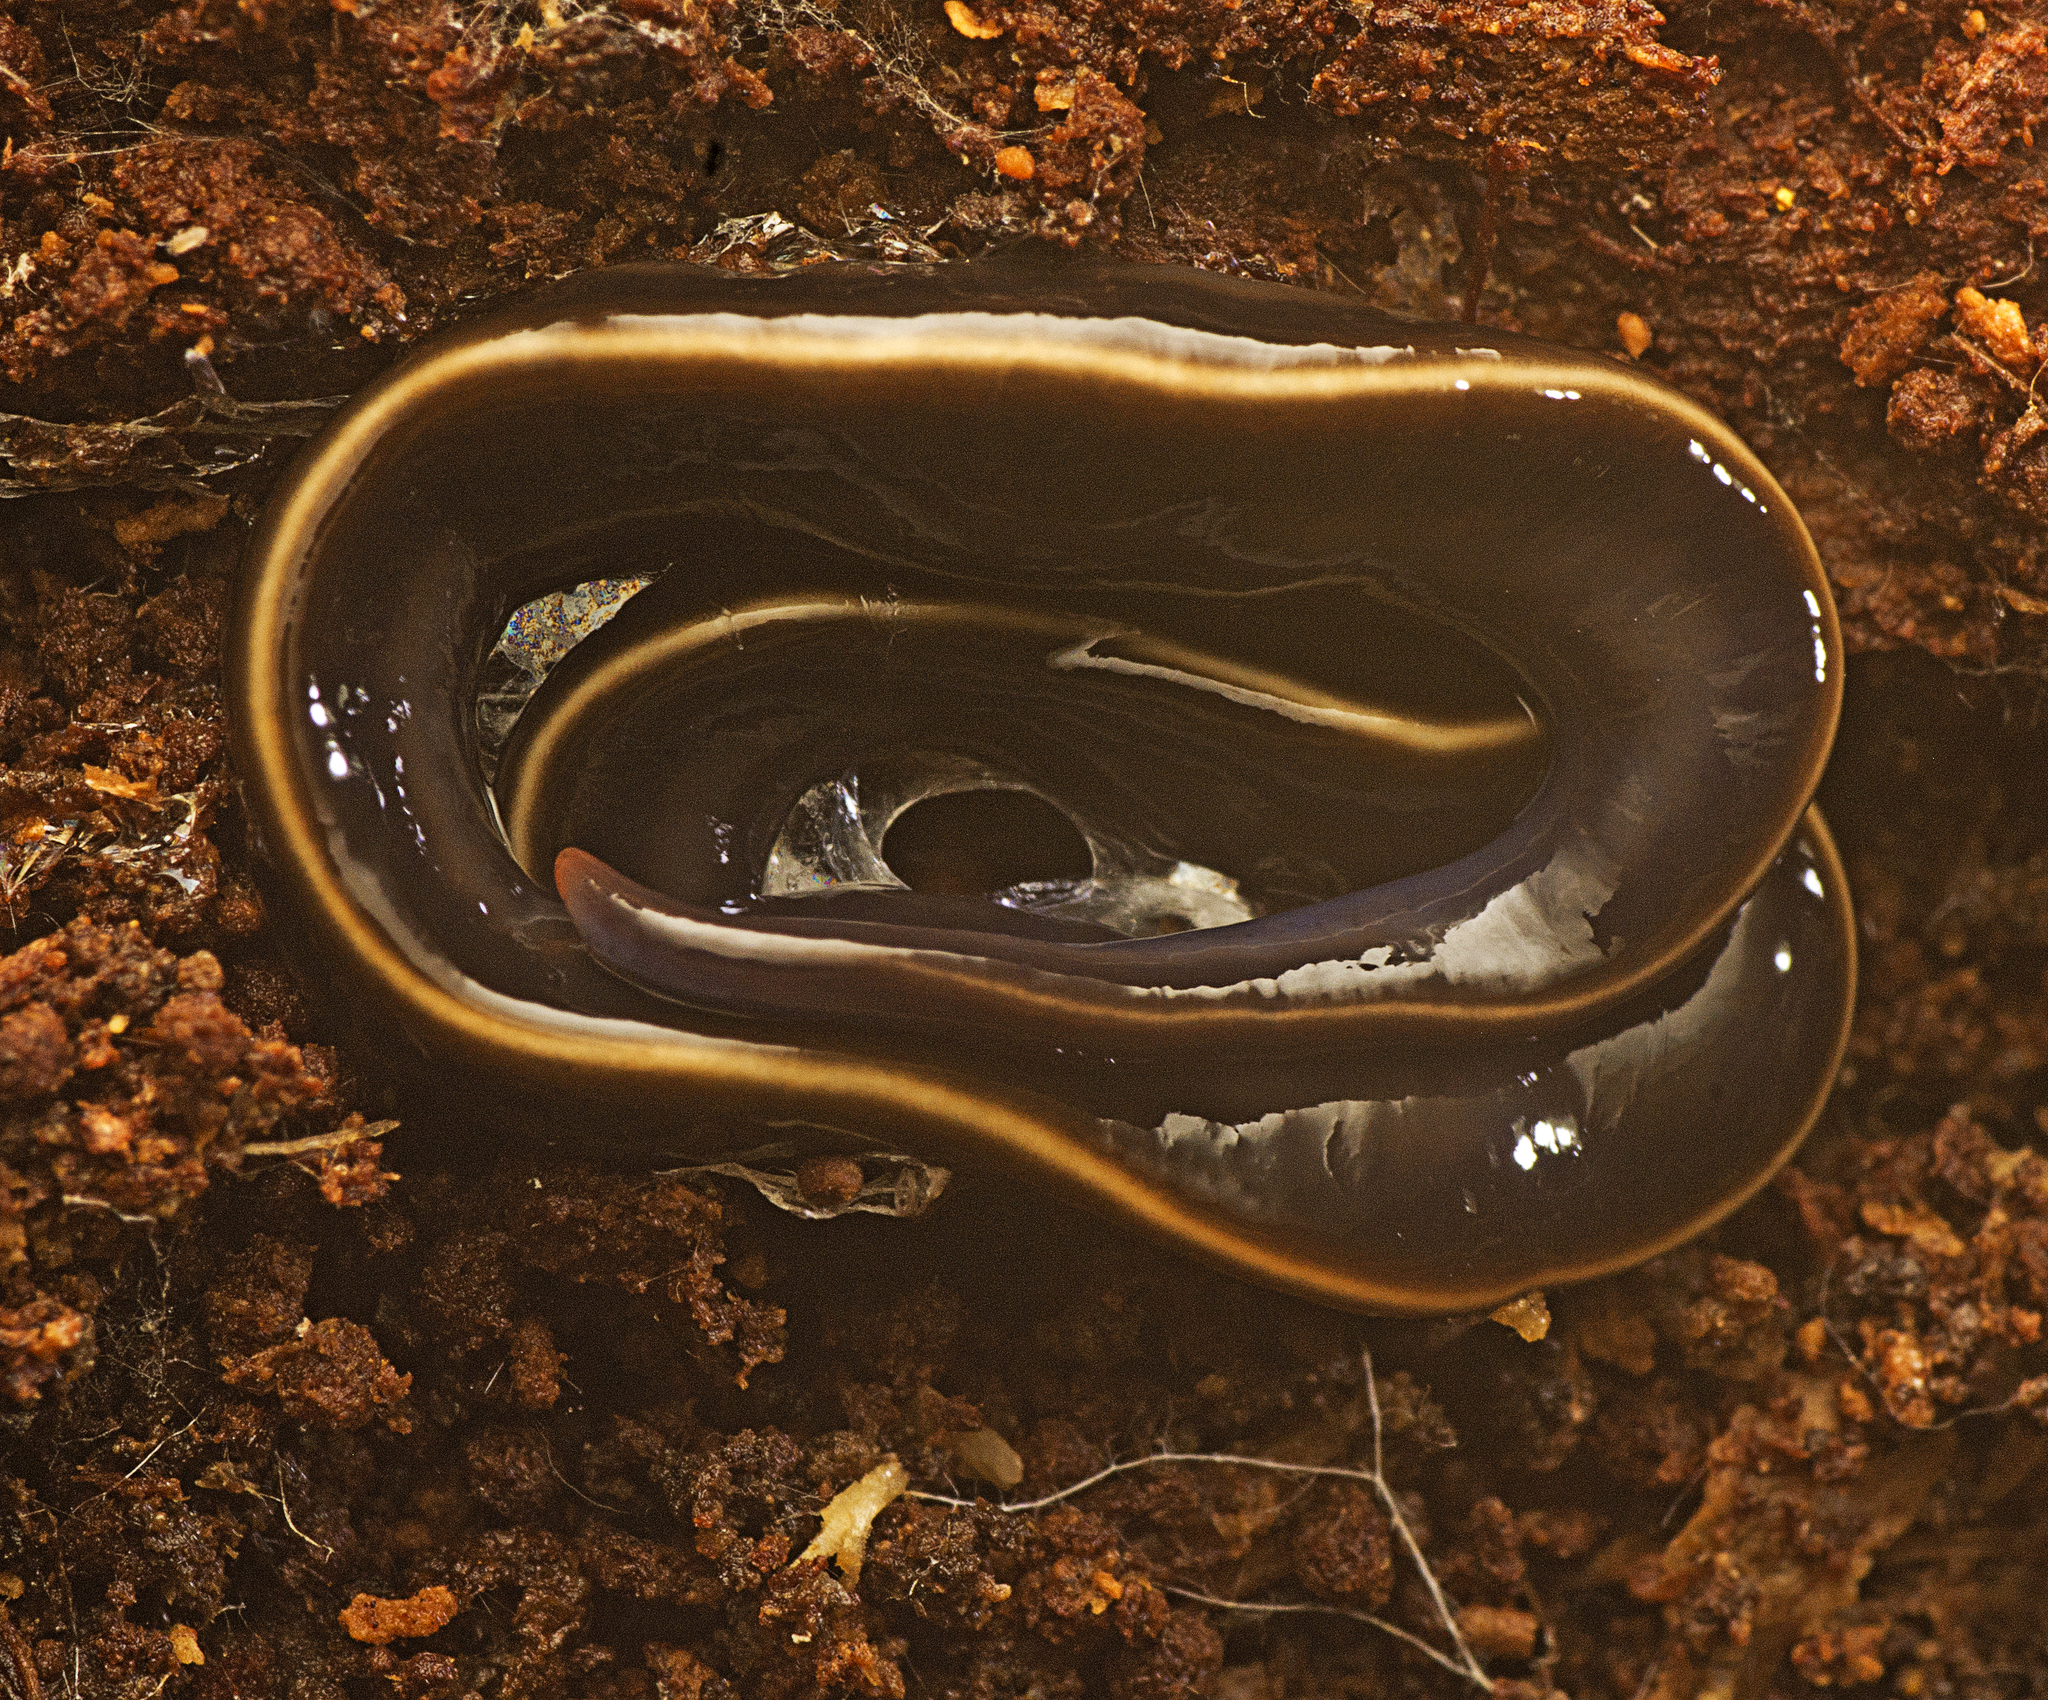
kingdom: Animalia
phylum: Platyhelminthes
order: Tricladida
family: Geoplanidae
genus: Caenoplana
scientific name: Caenoplana coerulea
